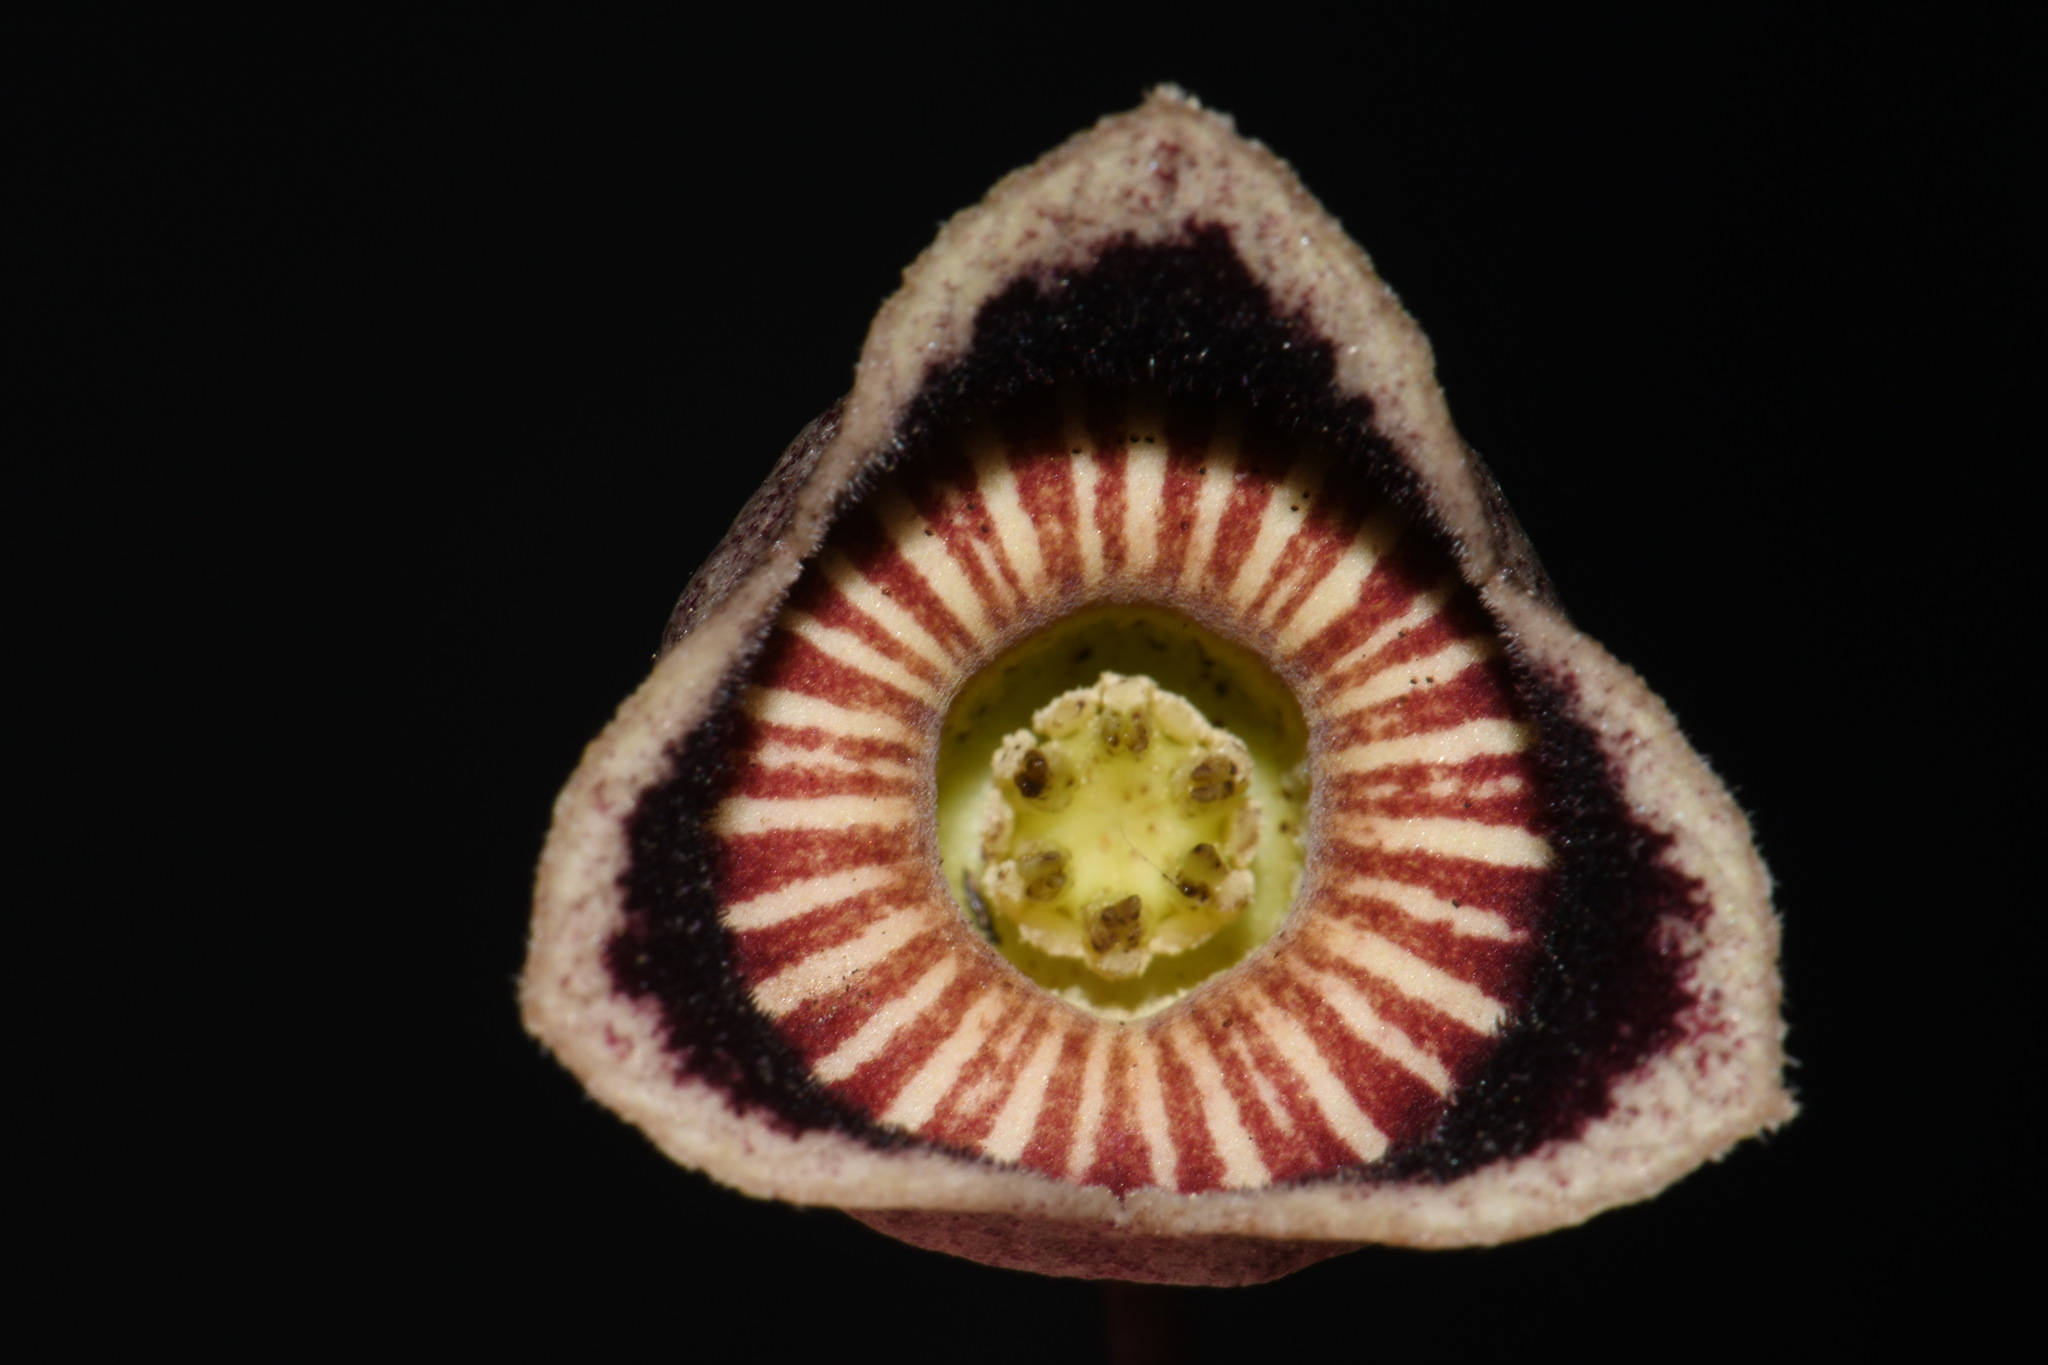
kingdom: Plantae
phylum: Tracheophyta
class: Magnoliopsida
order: Piperales
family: Aristolochiaceae
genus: Hexastylis
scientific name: Hexastylis speciosa
